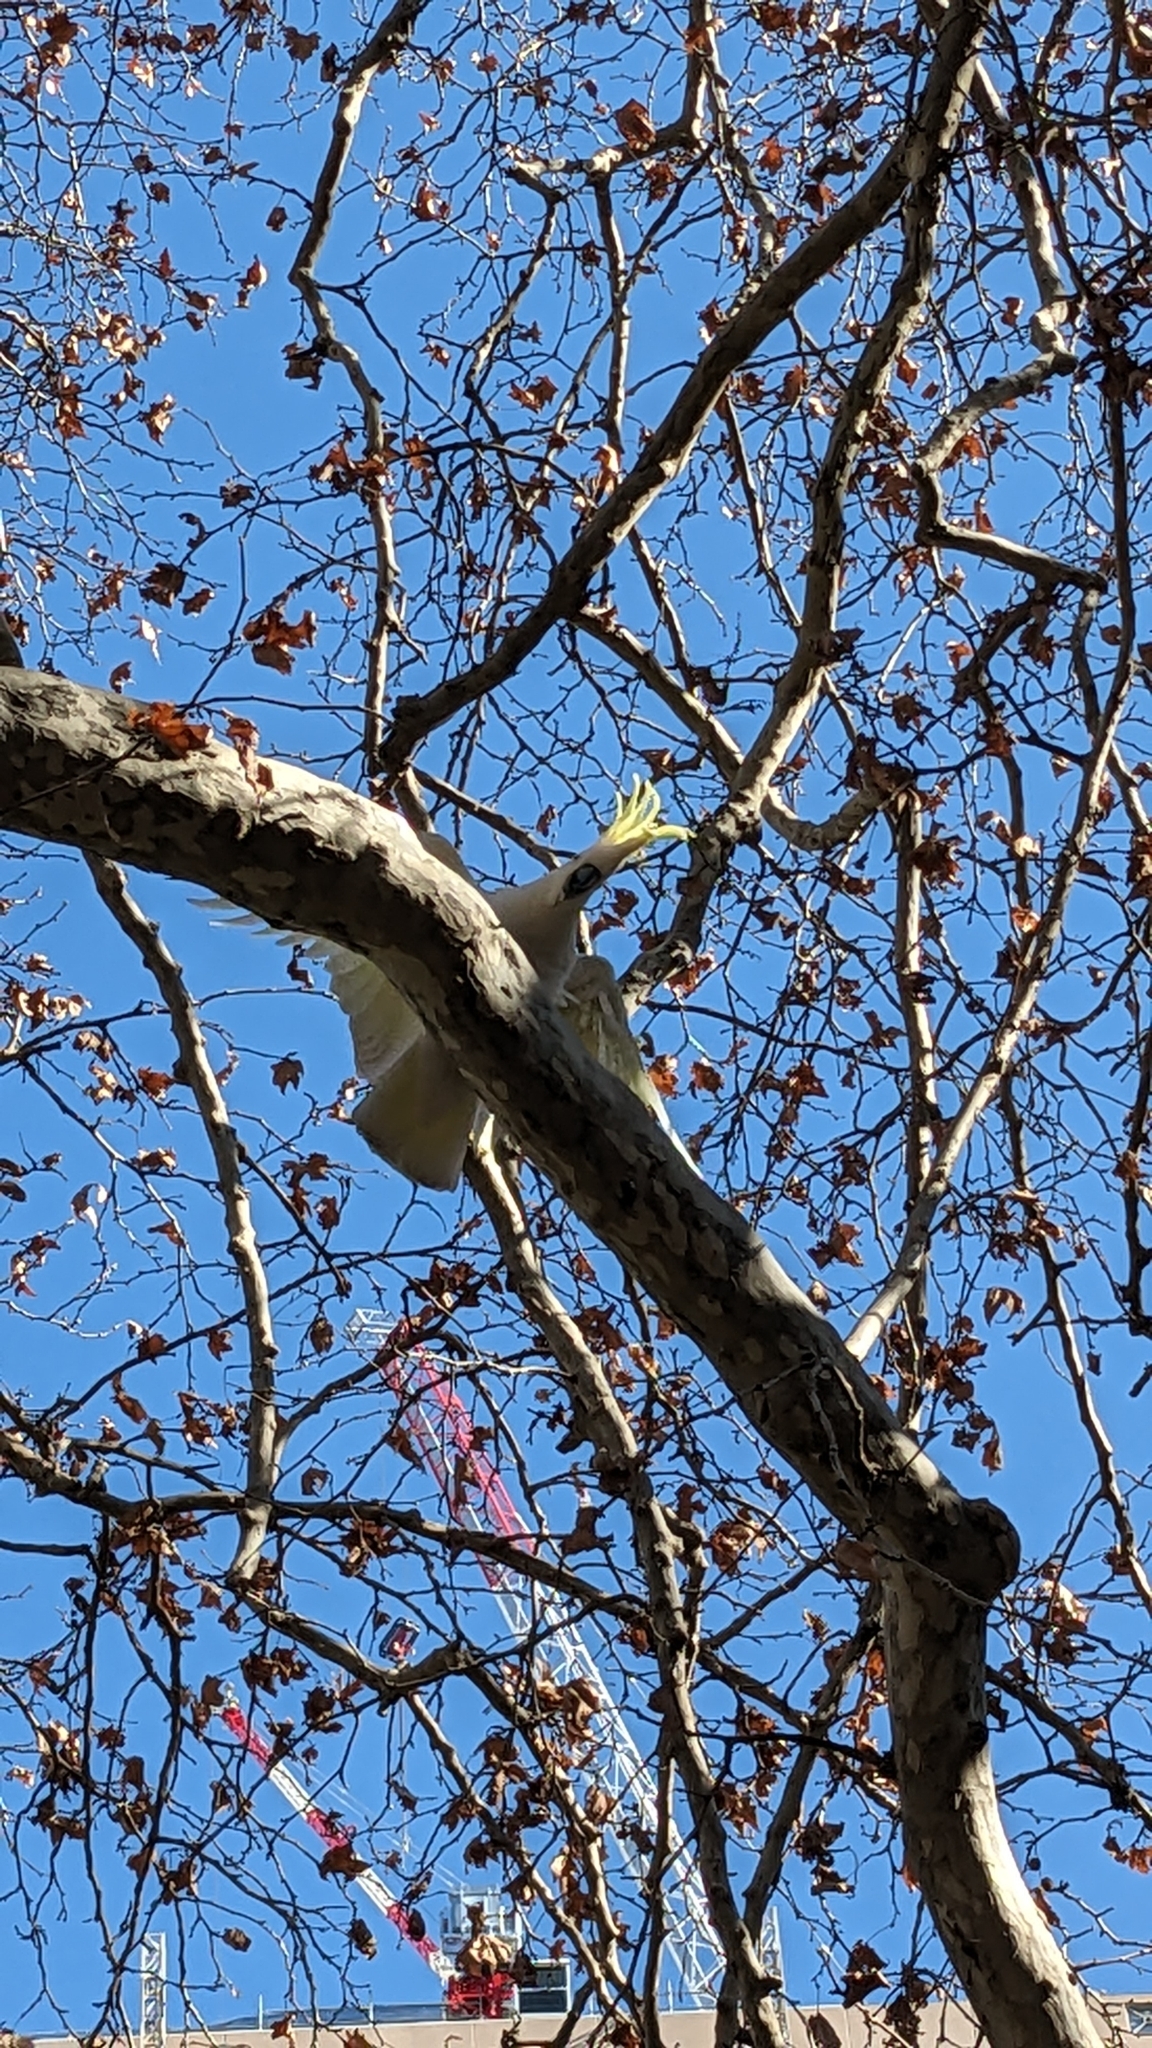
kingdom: Animalia
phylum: Chordata
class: Aves
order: Psittaciformes
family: Psittacidae
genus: Cacatua
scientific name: Cacatua galerita
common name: Sulphur-crested cockatoo
